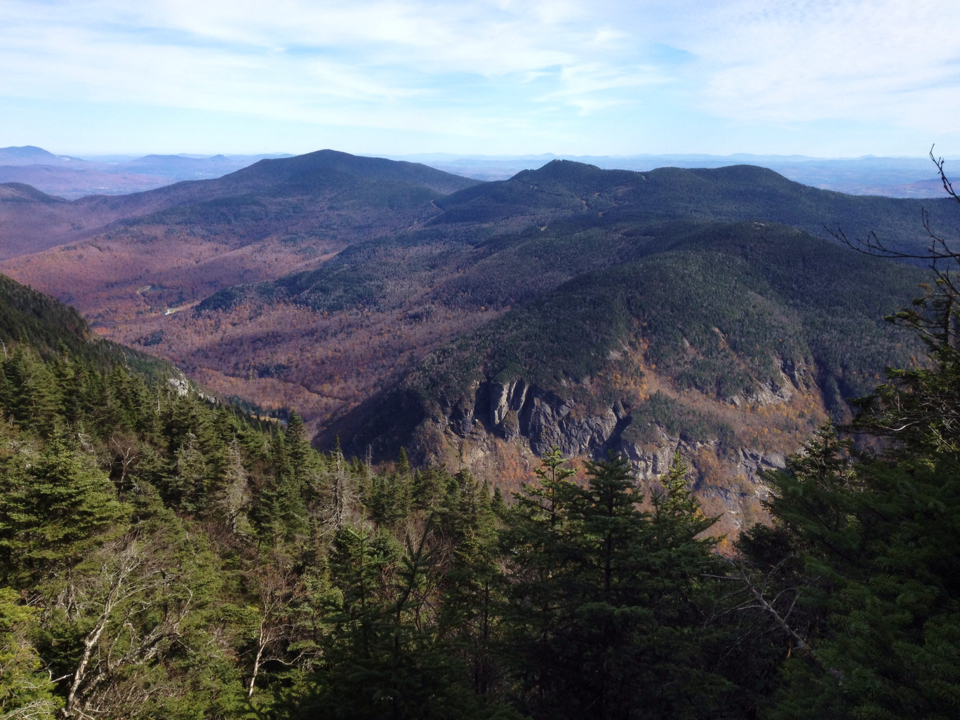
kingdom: Plantae
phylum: Tracheophyta
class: Pinopsida
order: Pinales
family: Pinaceae
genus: Abies
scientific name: Abies balsamea
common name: Balsam fir
